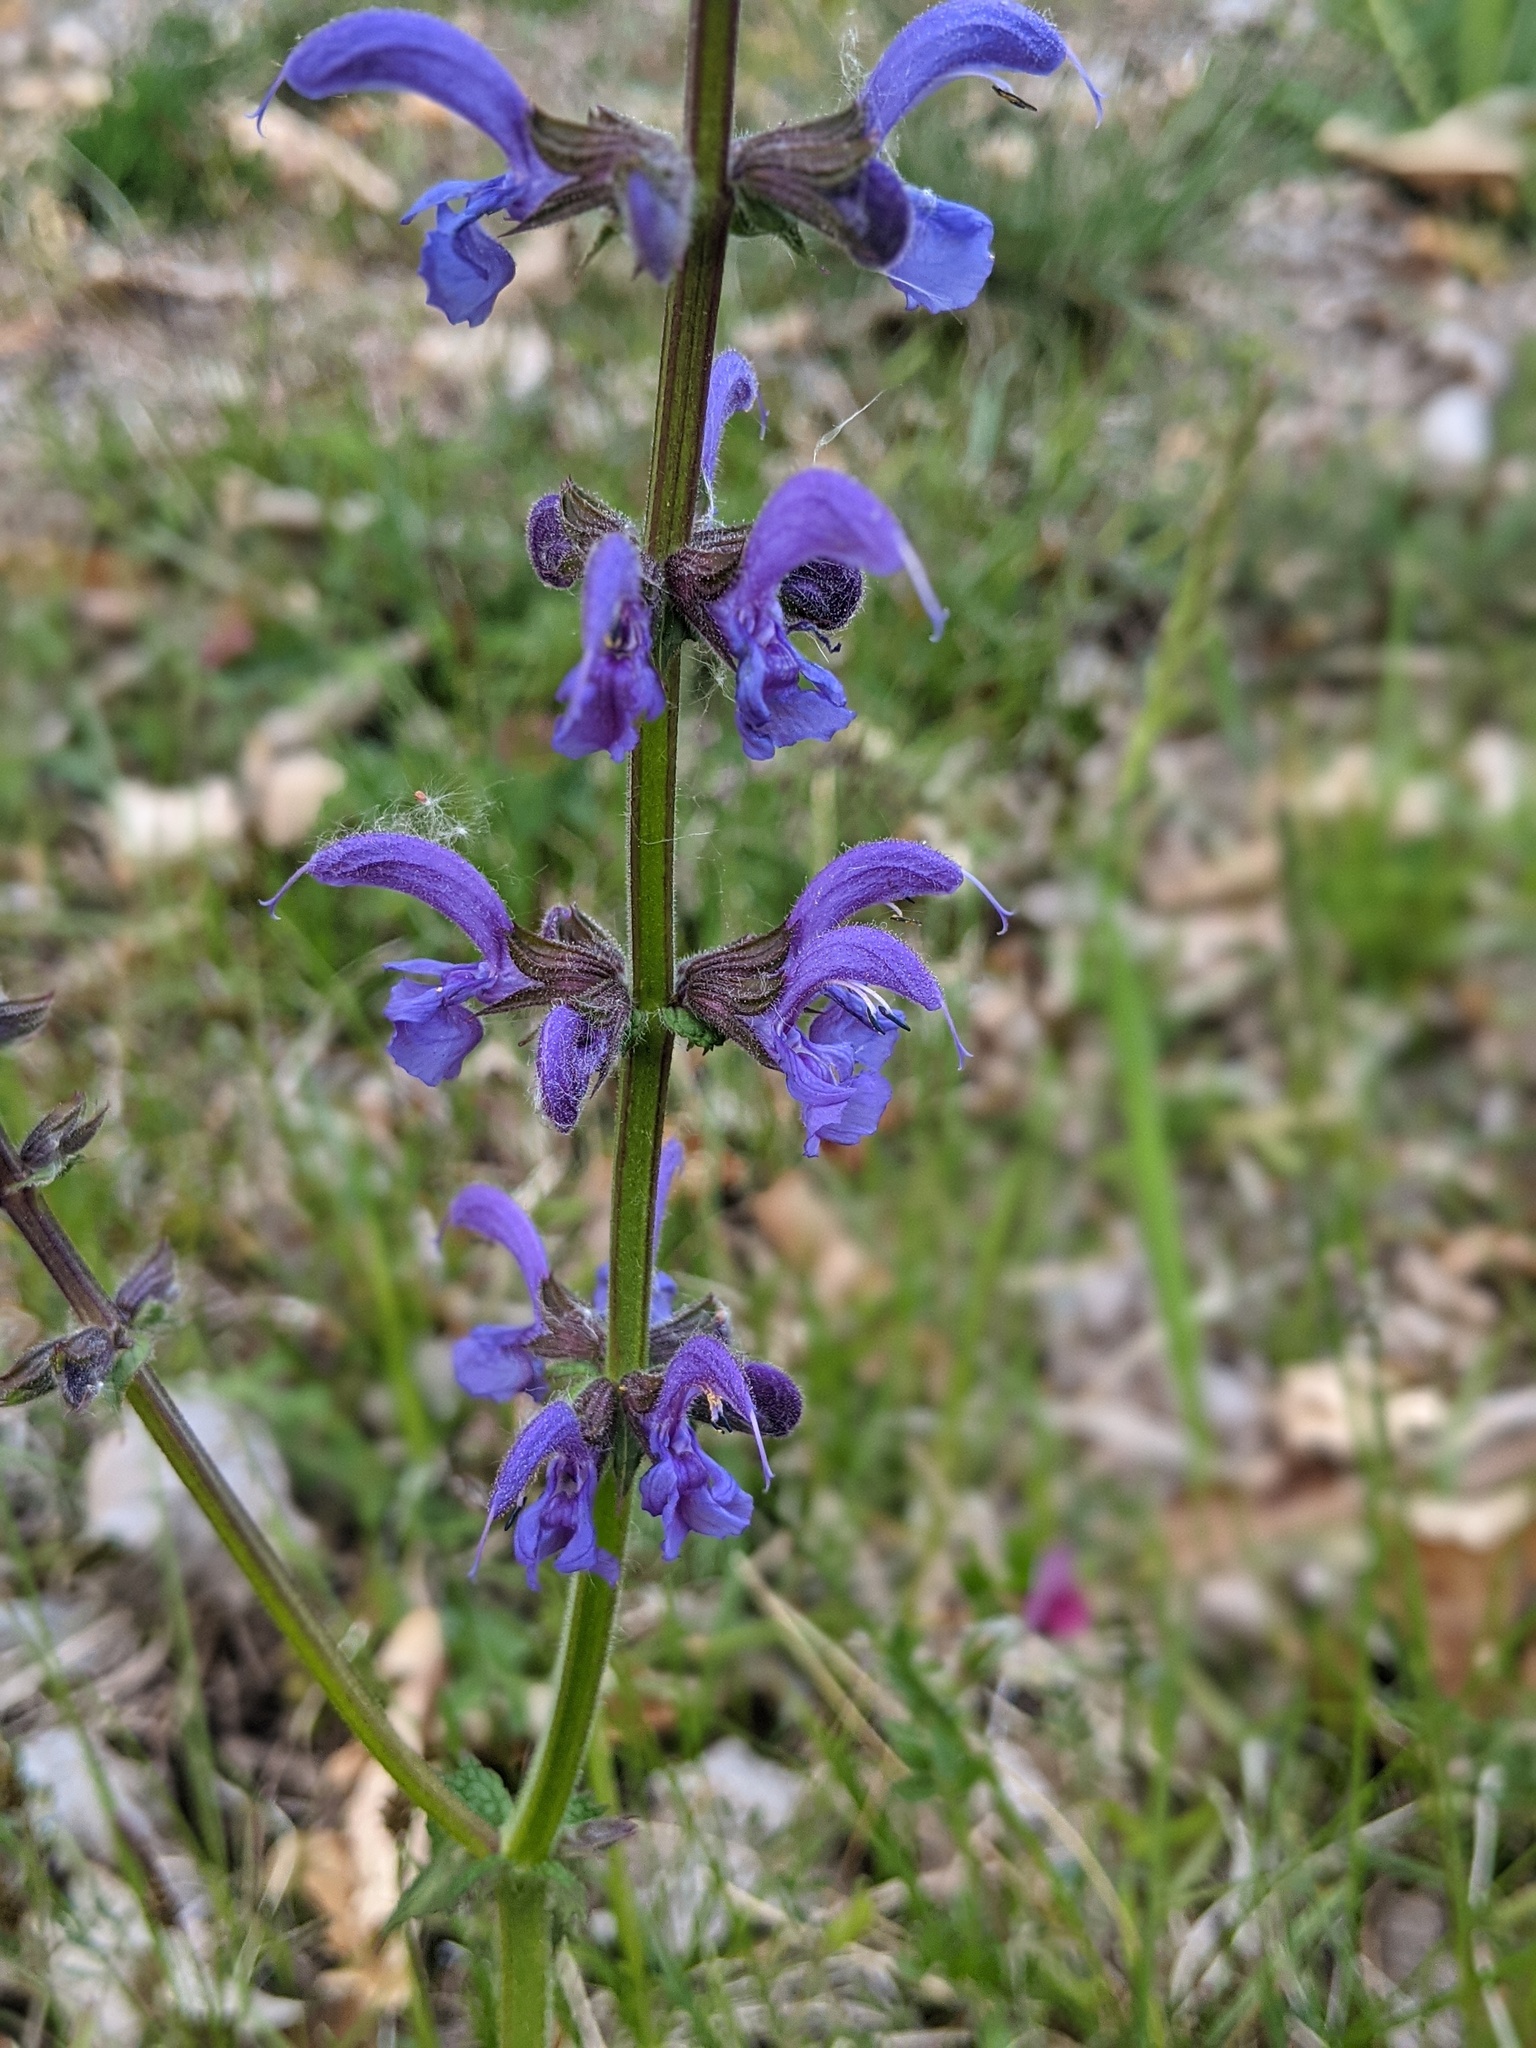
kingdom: Plantae
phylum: Tracheophyta
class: Magnoliopsida
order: Lamiales
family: Lamiaceae
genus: Salvia
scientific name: Salvia pratensis
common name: Meadow sage
